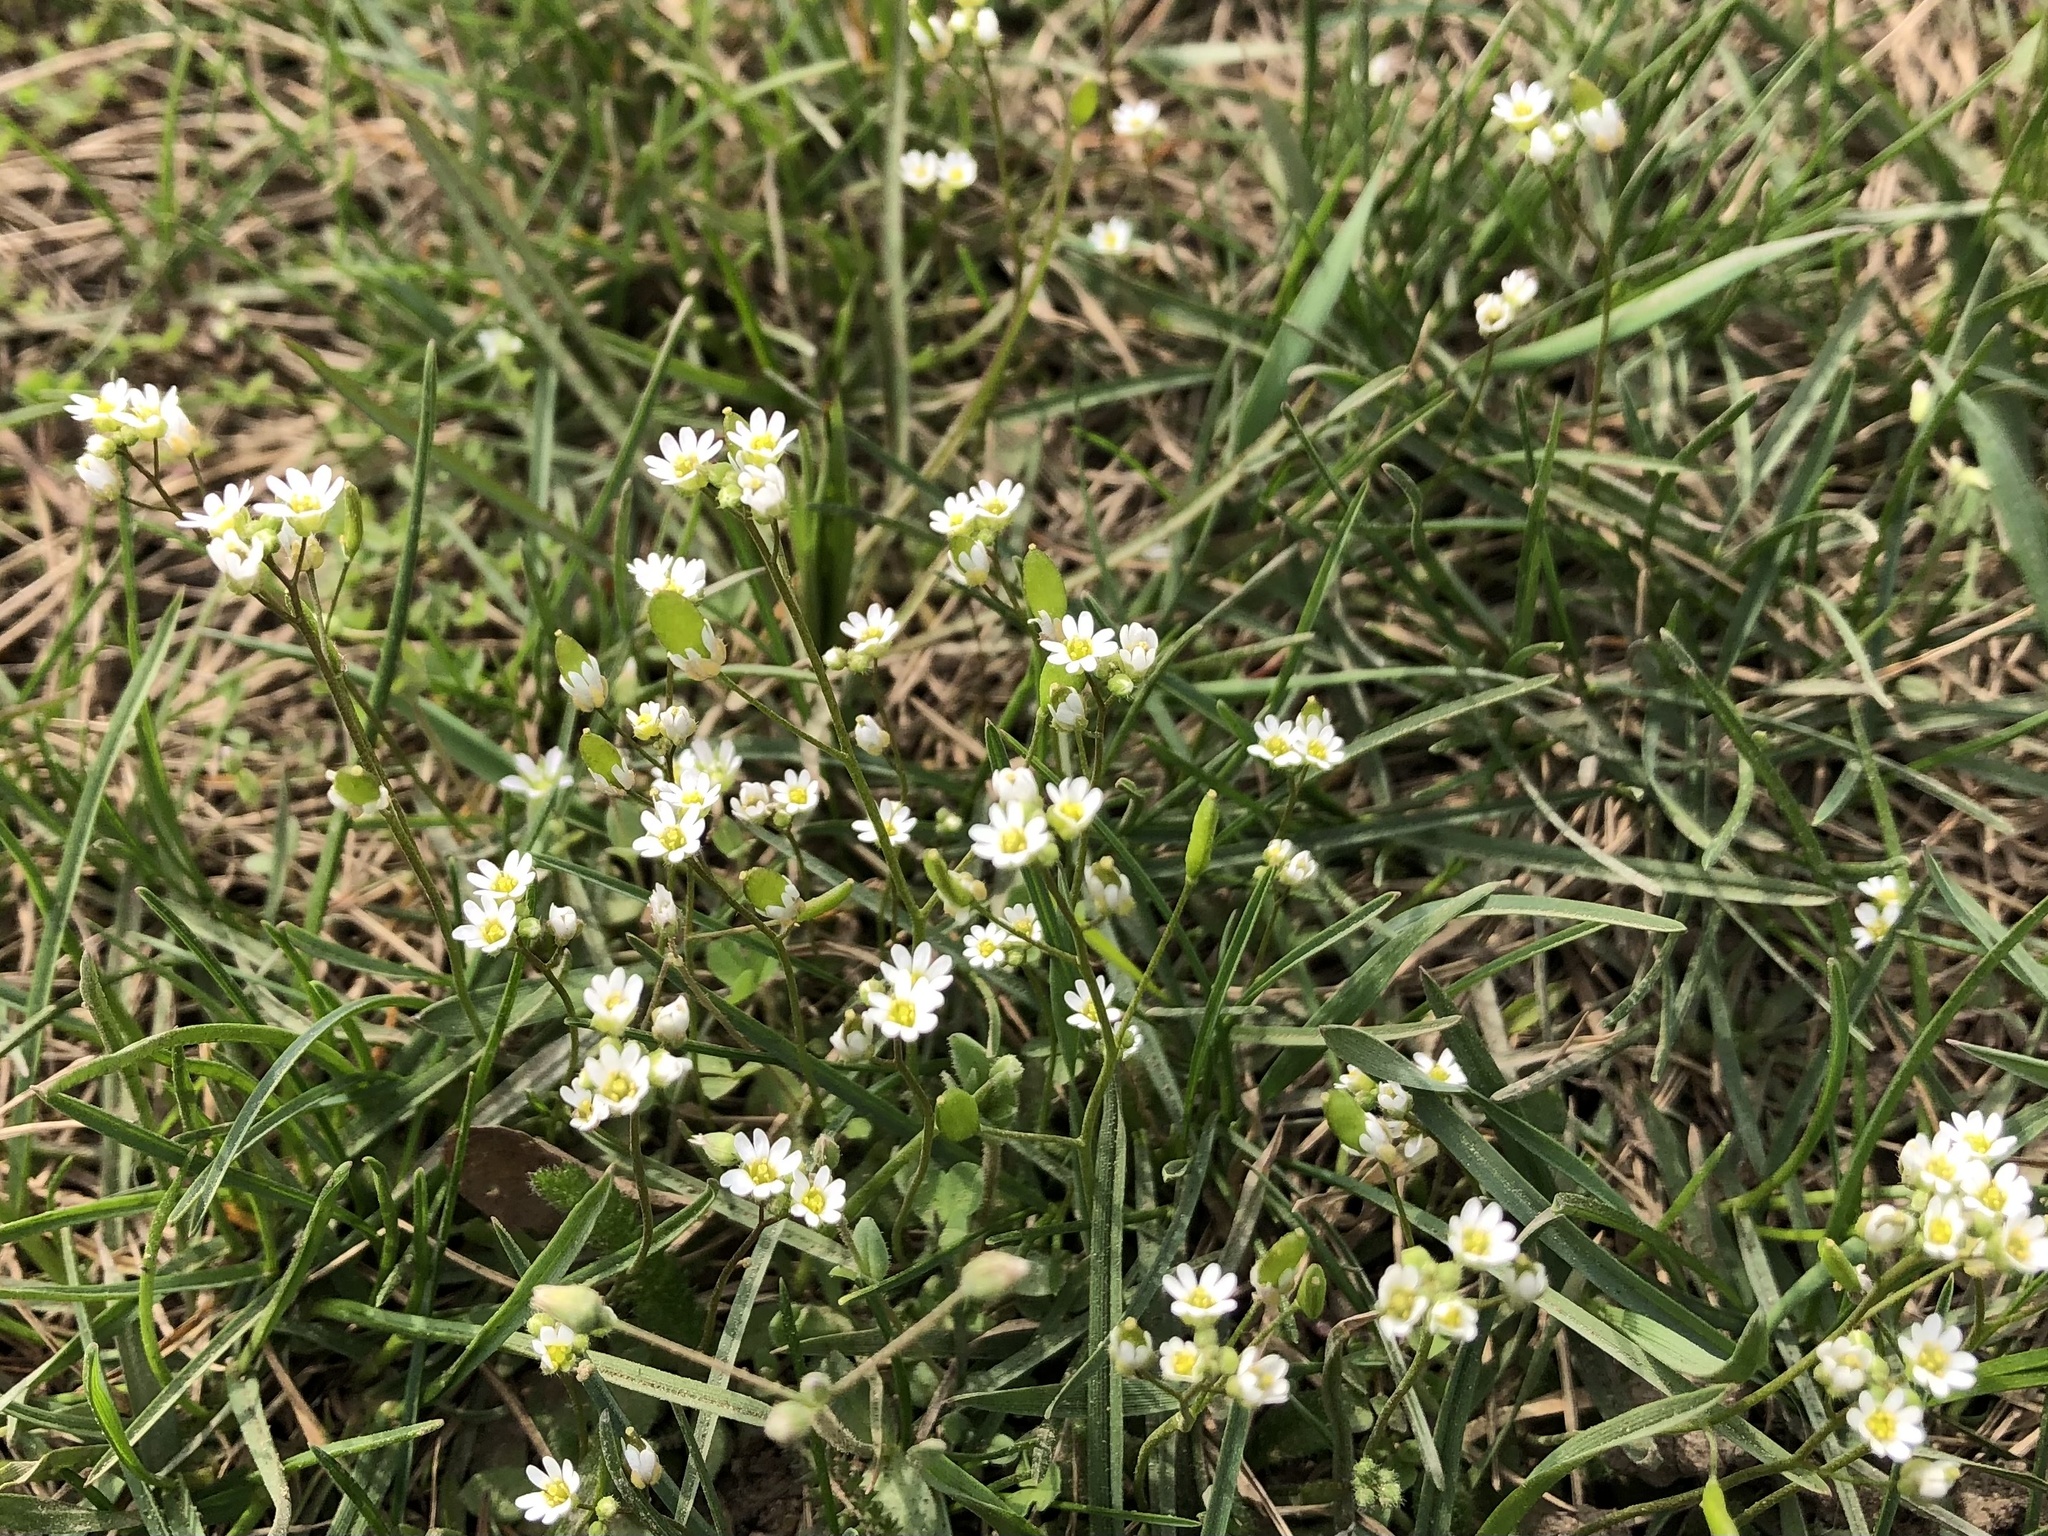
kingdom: Plantae
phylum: Tracheophyta
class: Magnoliopsida
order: Brassicales
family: Brassicaceae
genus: Draba
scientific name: Draba verna
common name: Spring draba
